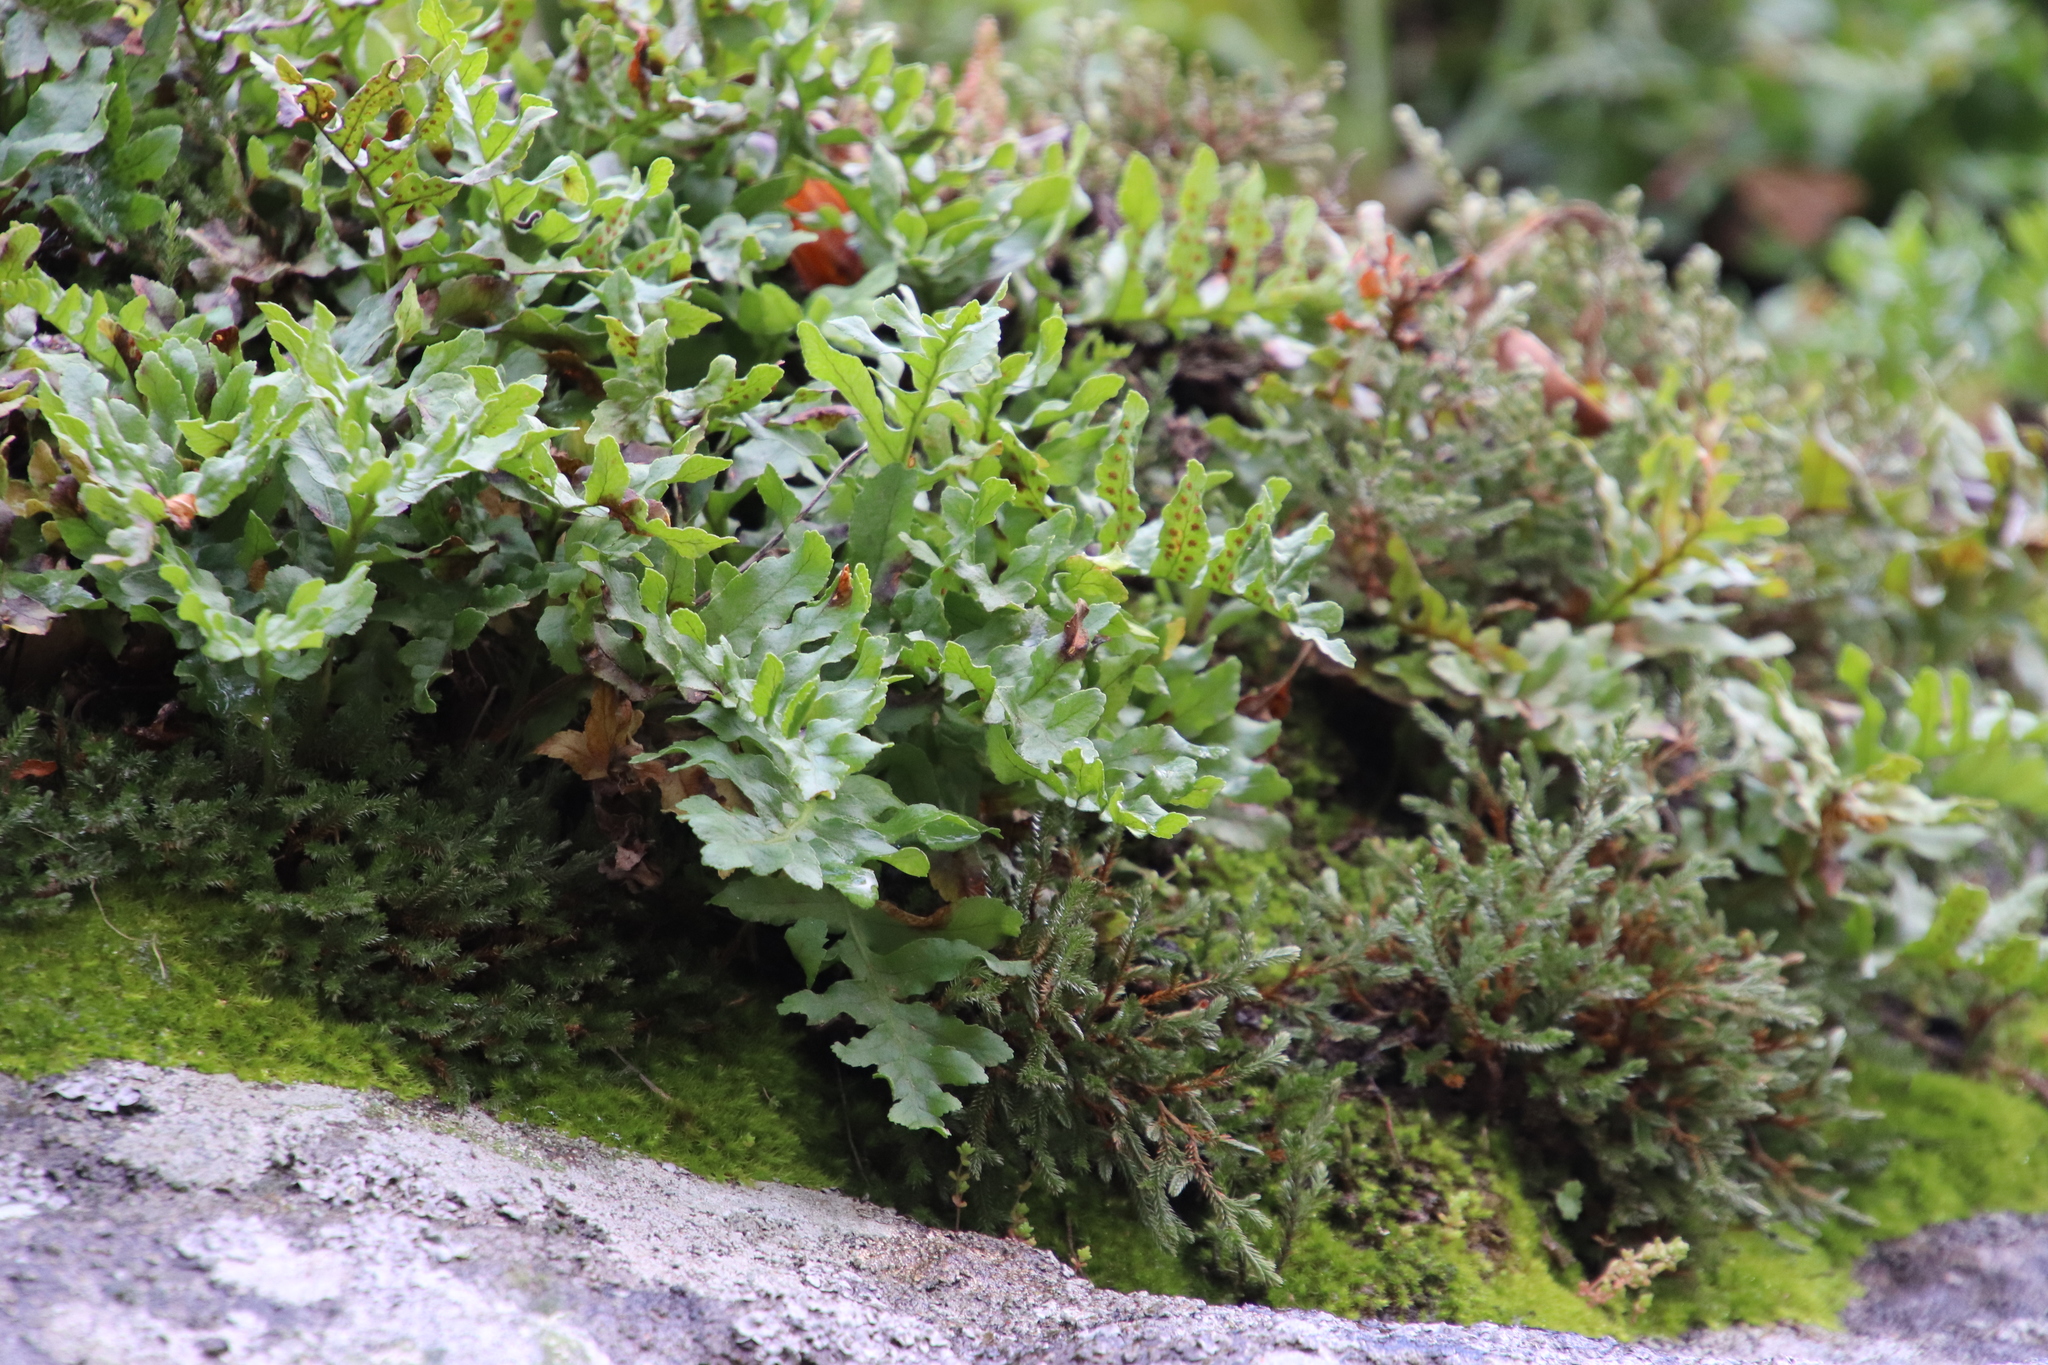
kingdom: Plantae
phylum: Tracheophyta
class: Polypodiopsida
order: Polypodiales
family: Polypodiaceae
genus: Polypodium
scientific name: Polypodium californicum
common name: California polypody
